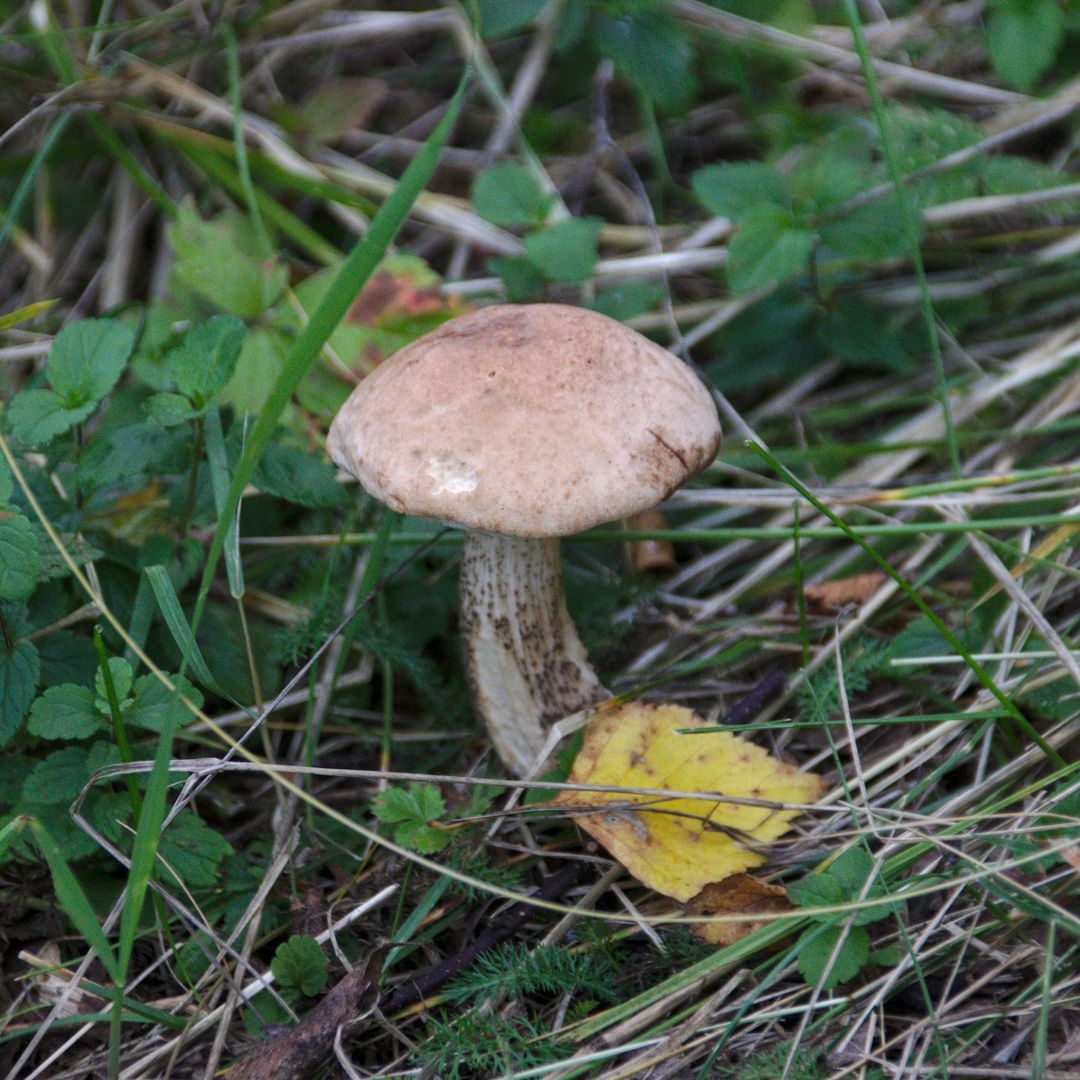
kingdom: Fungi
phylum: Basidiomycota
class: Agaricomycetes
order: Boletales
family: Boletaceae
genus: Leccinum
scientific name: Leccinum scabrum
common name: Blushing bolete
